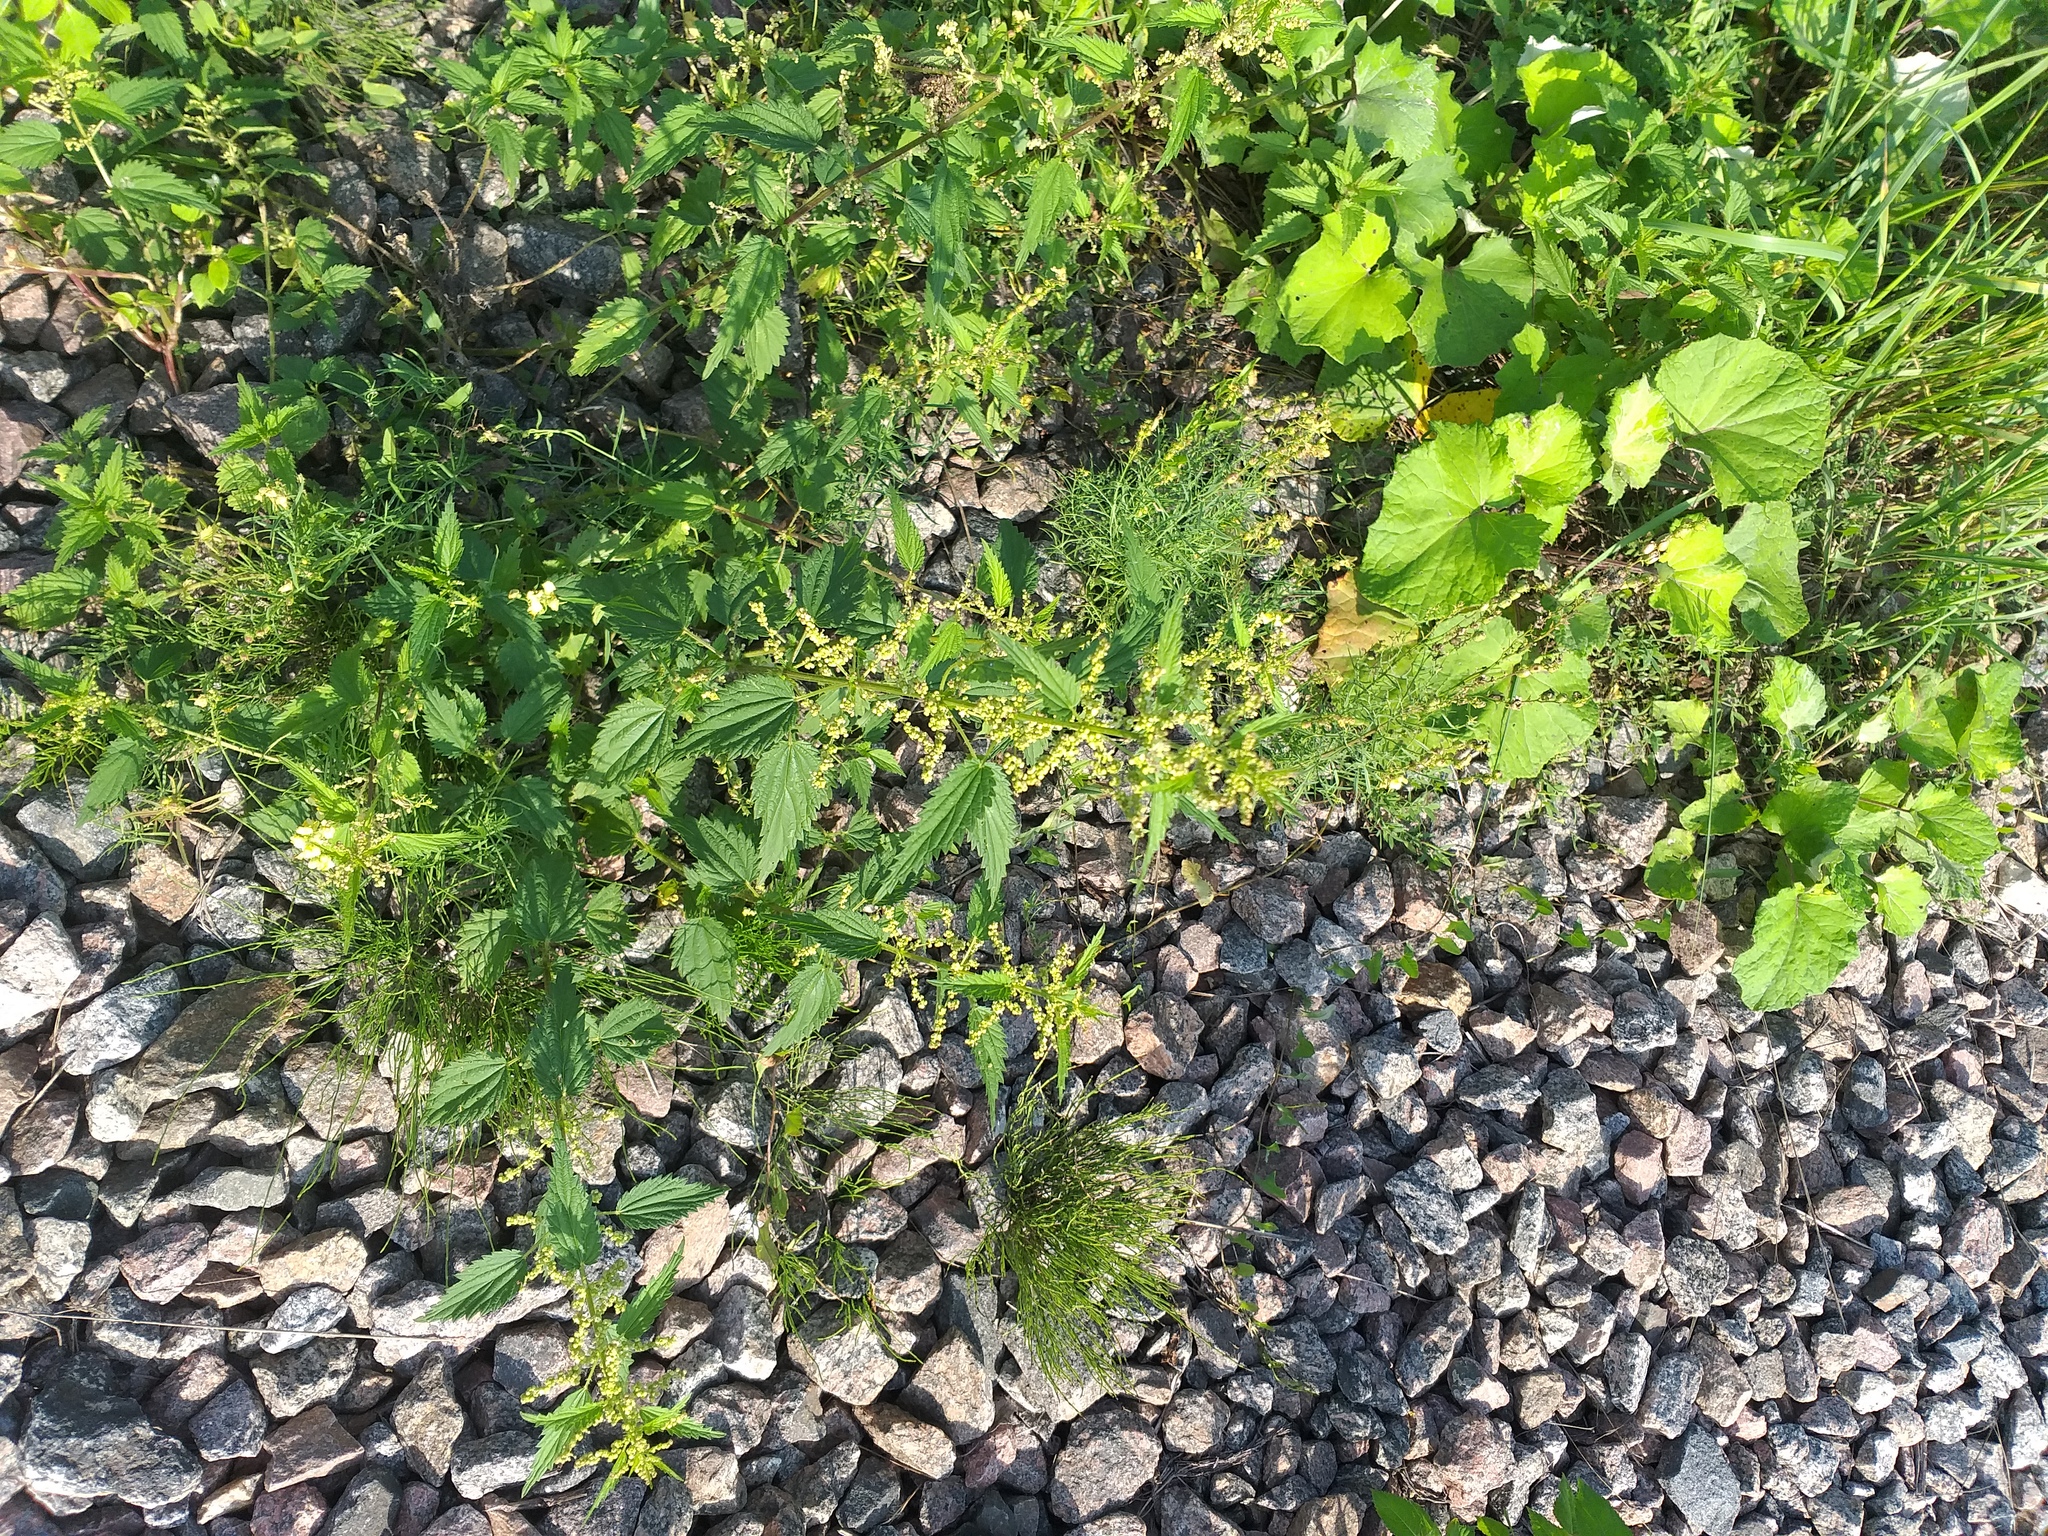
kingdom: Plantae
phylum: Tracheophyta
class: Magnoliopsida
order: Rosales
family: Urticaceae
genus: Urtica
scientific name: Urtica dioica
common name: Common nettle
